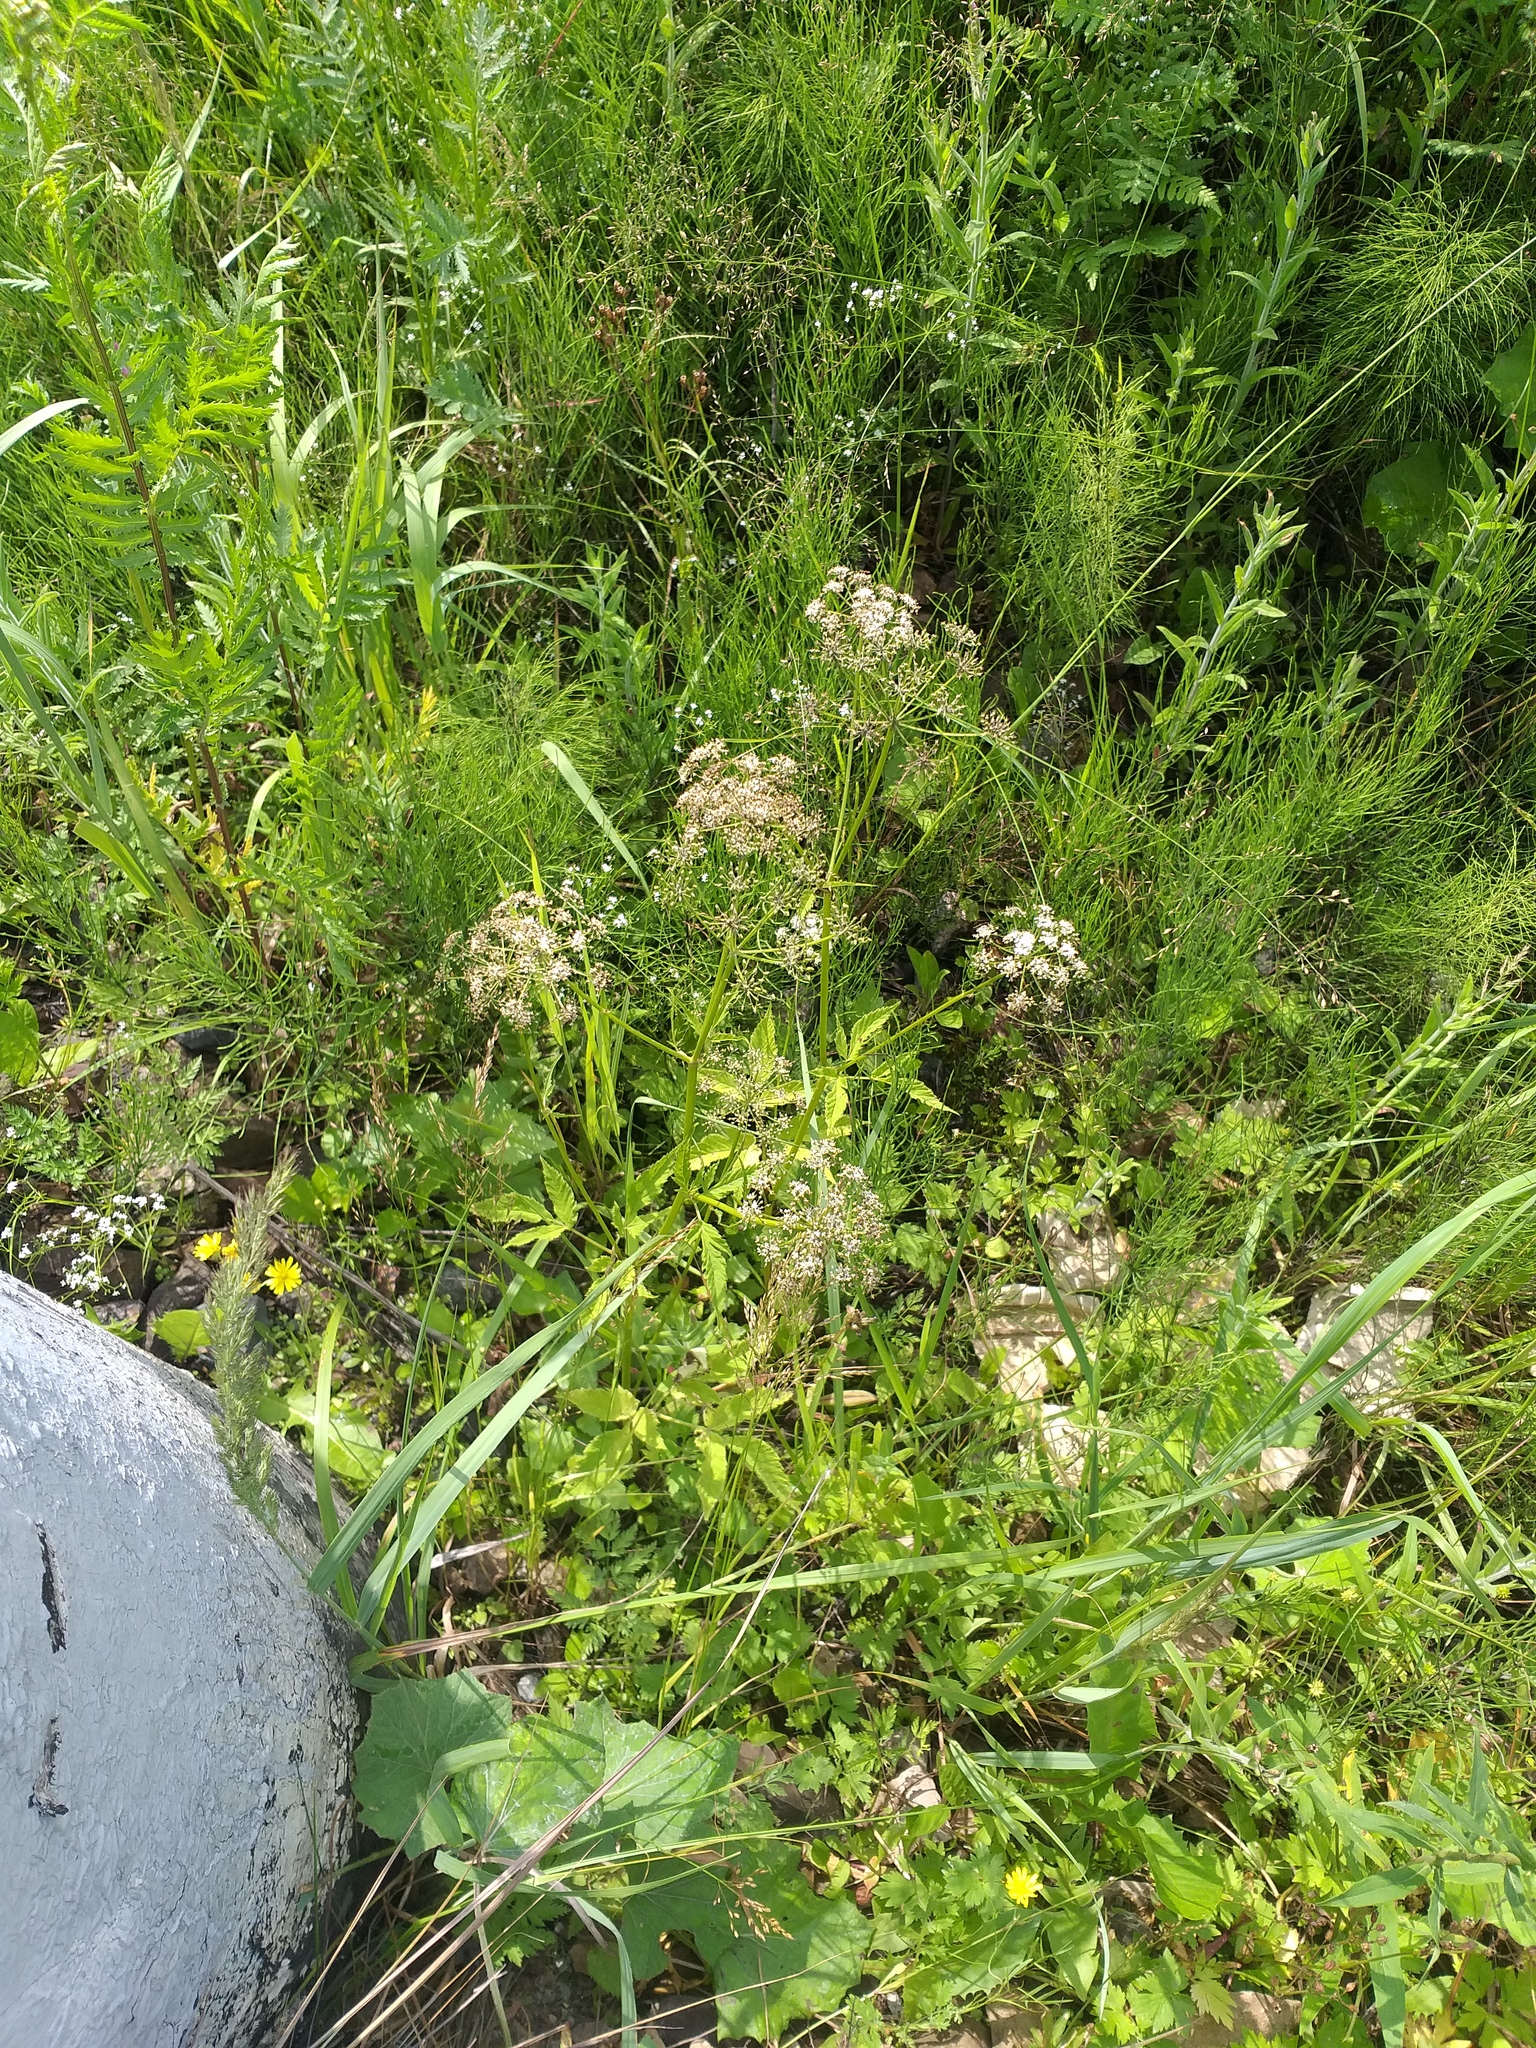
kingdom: Plantae
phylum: Tracheophyta
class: Magnoliopsida
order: Apiales
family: Apiaceae
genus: Aegopodium
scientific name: Aegopodium podagraria
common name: Ground-elder
